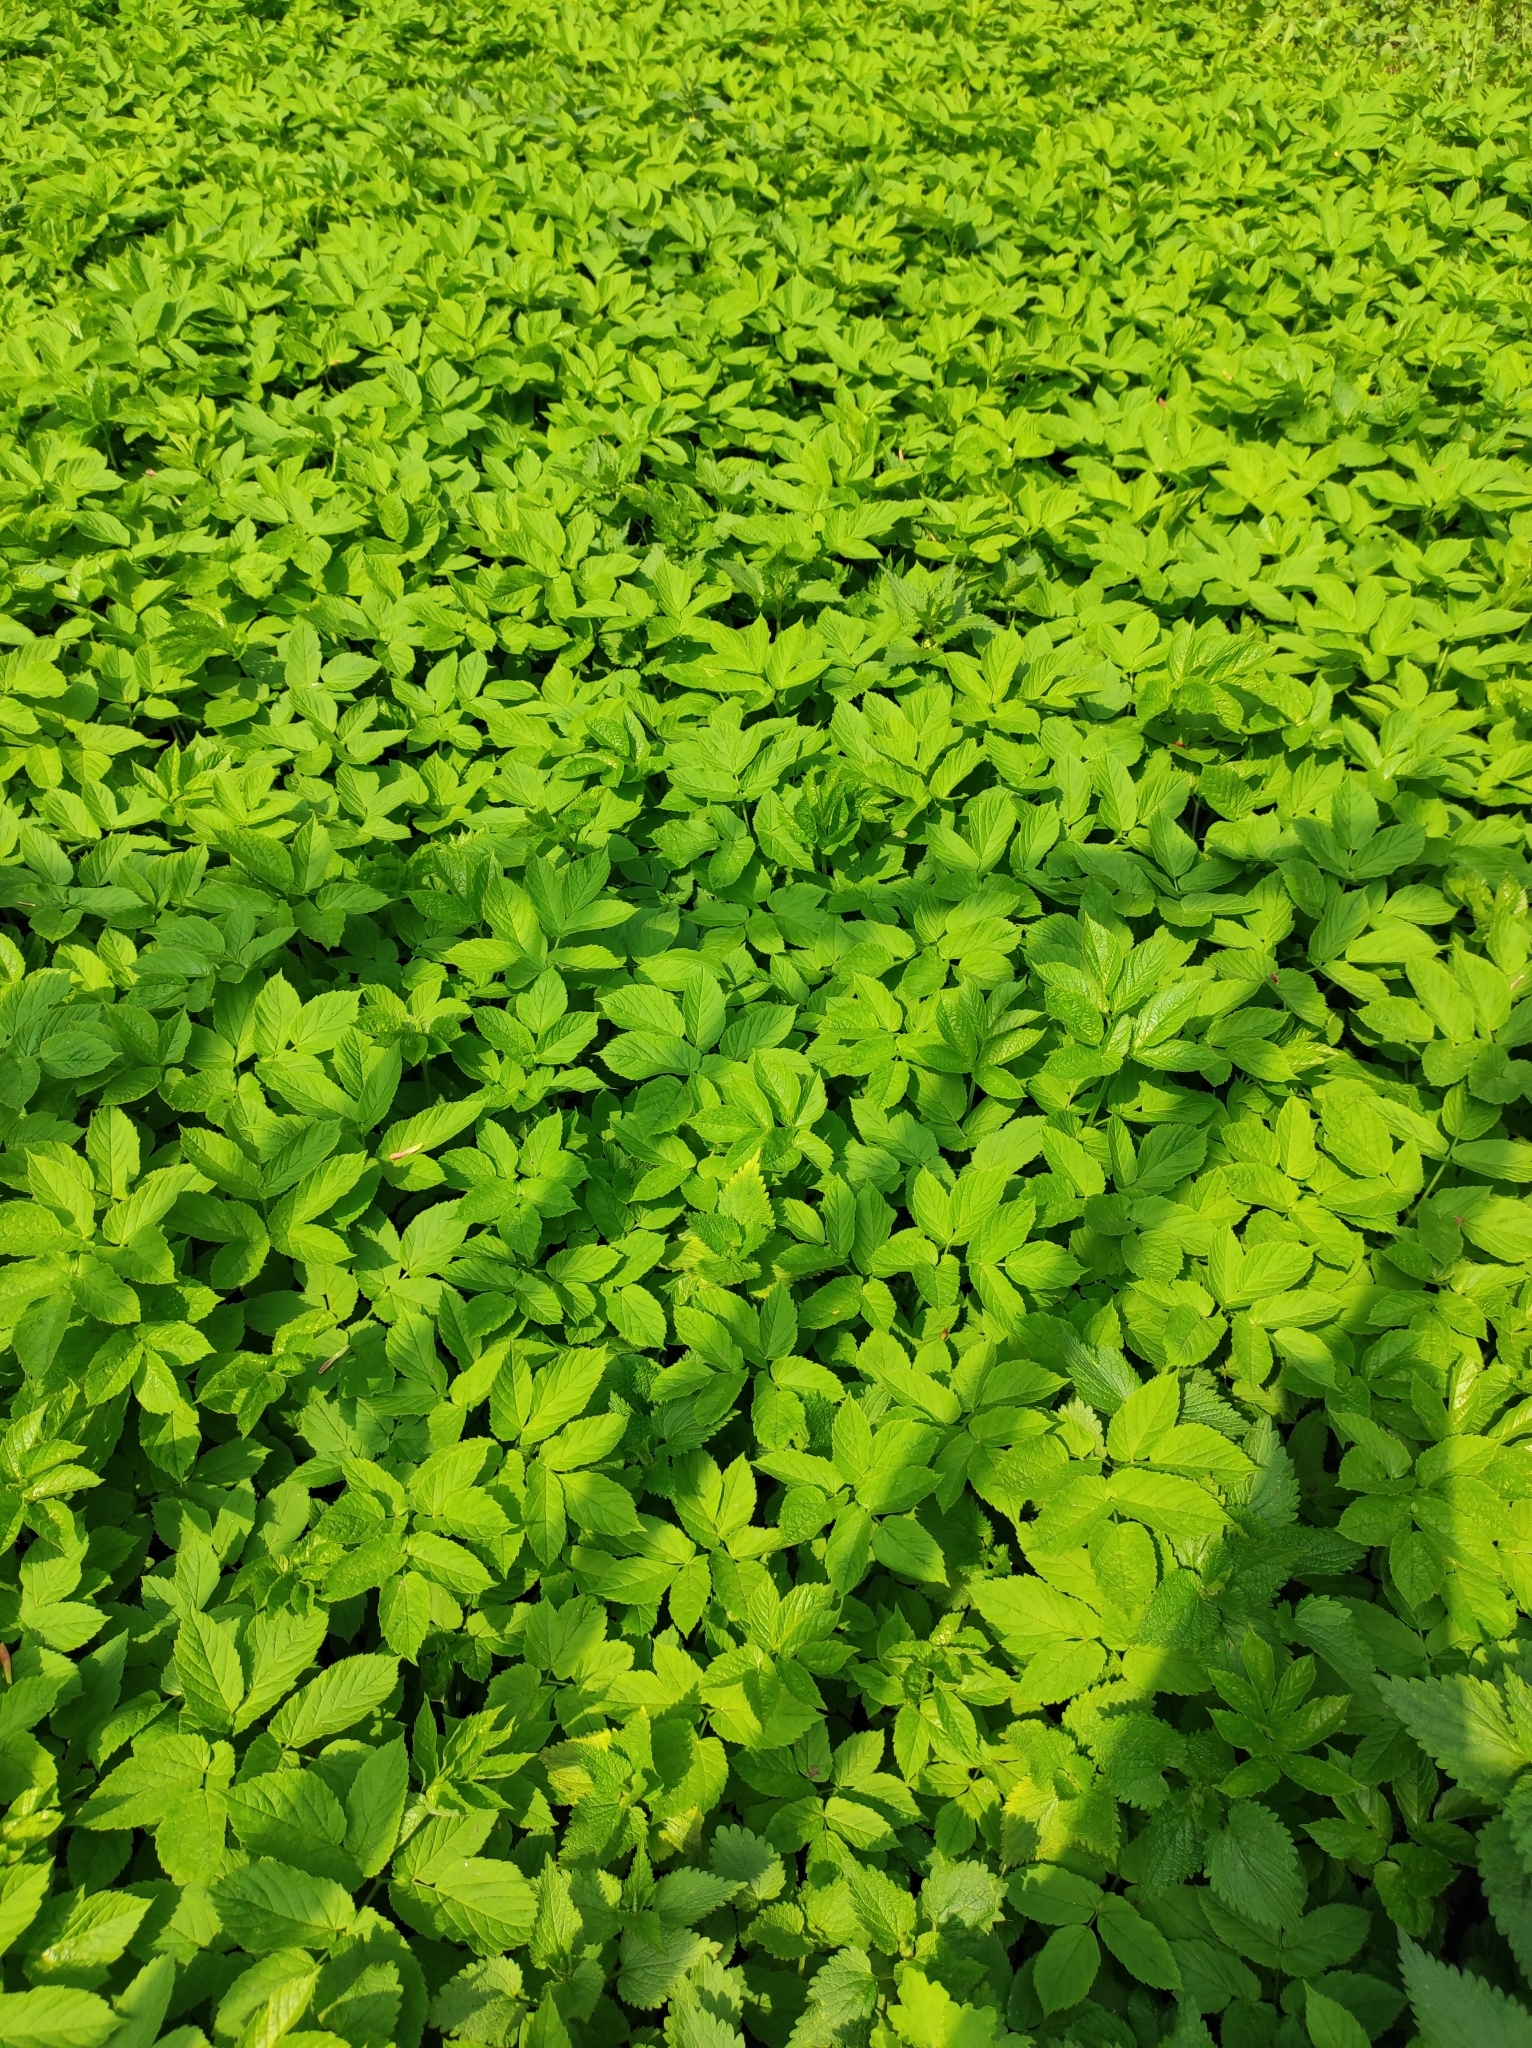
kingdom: Plantae
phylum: Tracheophyta
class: Magnoliopsida
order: Apiales
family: Apiaceae
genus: Aegopodium
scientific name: Aegopodium podagraria
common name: Ground-elder
